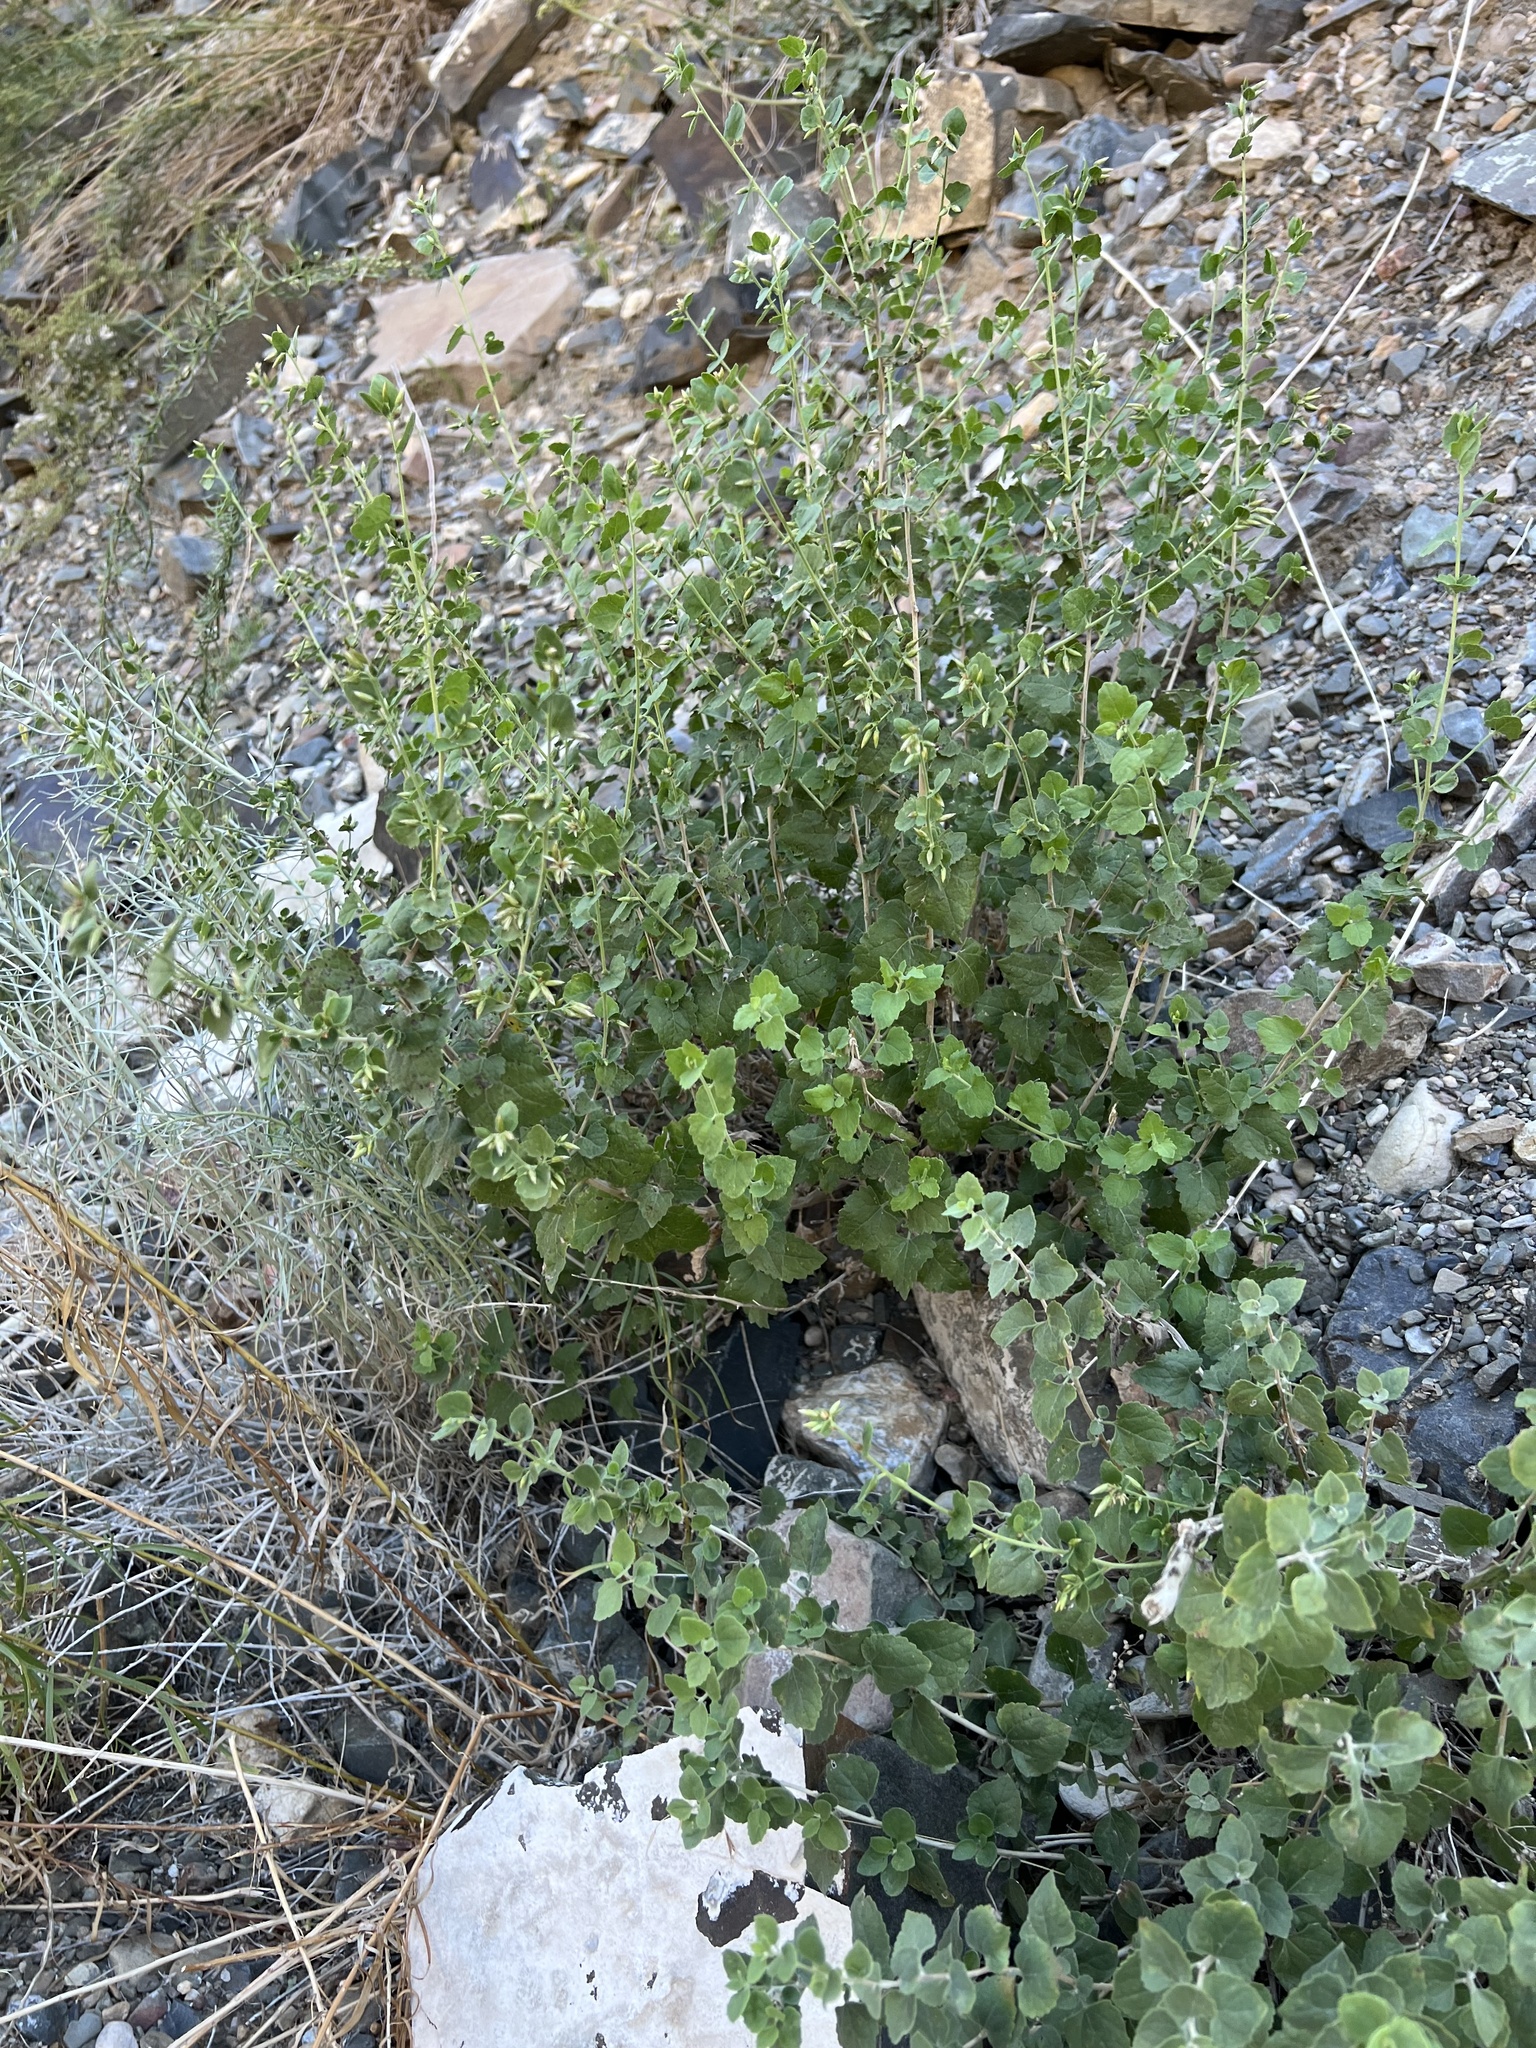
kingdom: Plantae
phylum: Tracheophyta
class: Magnoliopsida
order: Asterales
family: Asteraceae
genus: Brickellia
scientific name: Brickellia californica
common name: California brickellbush
